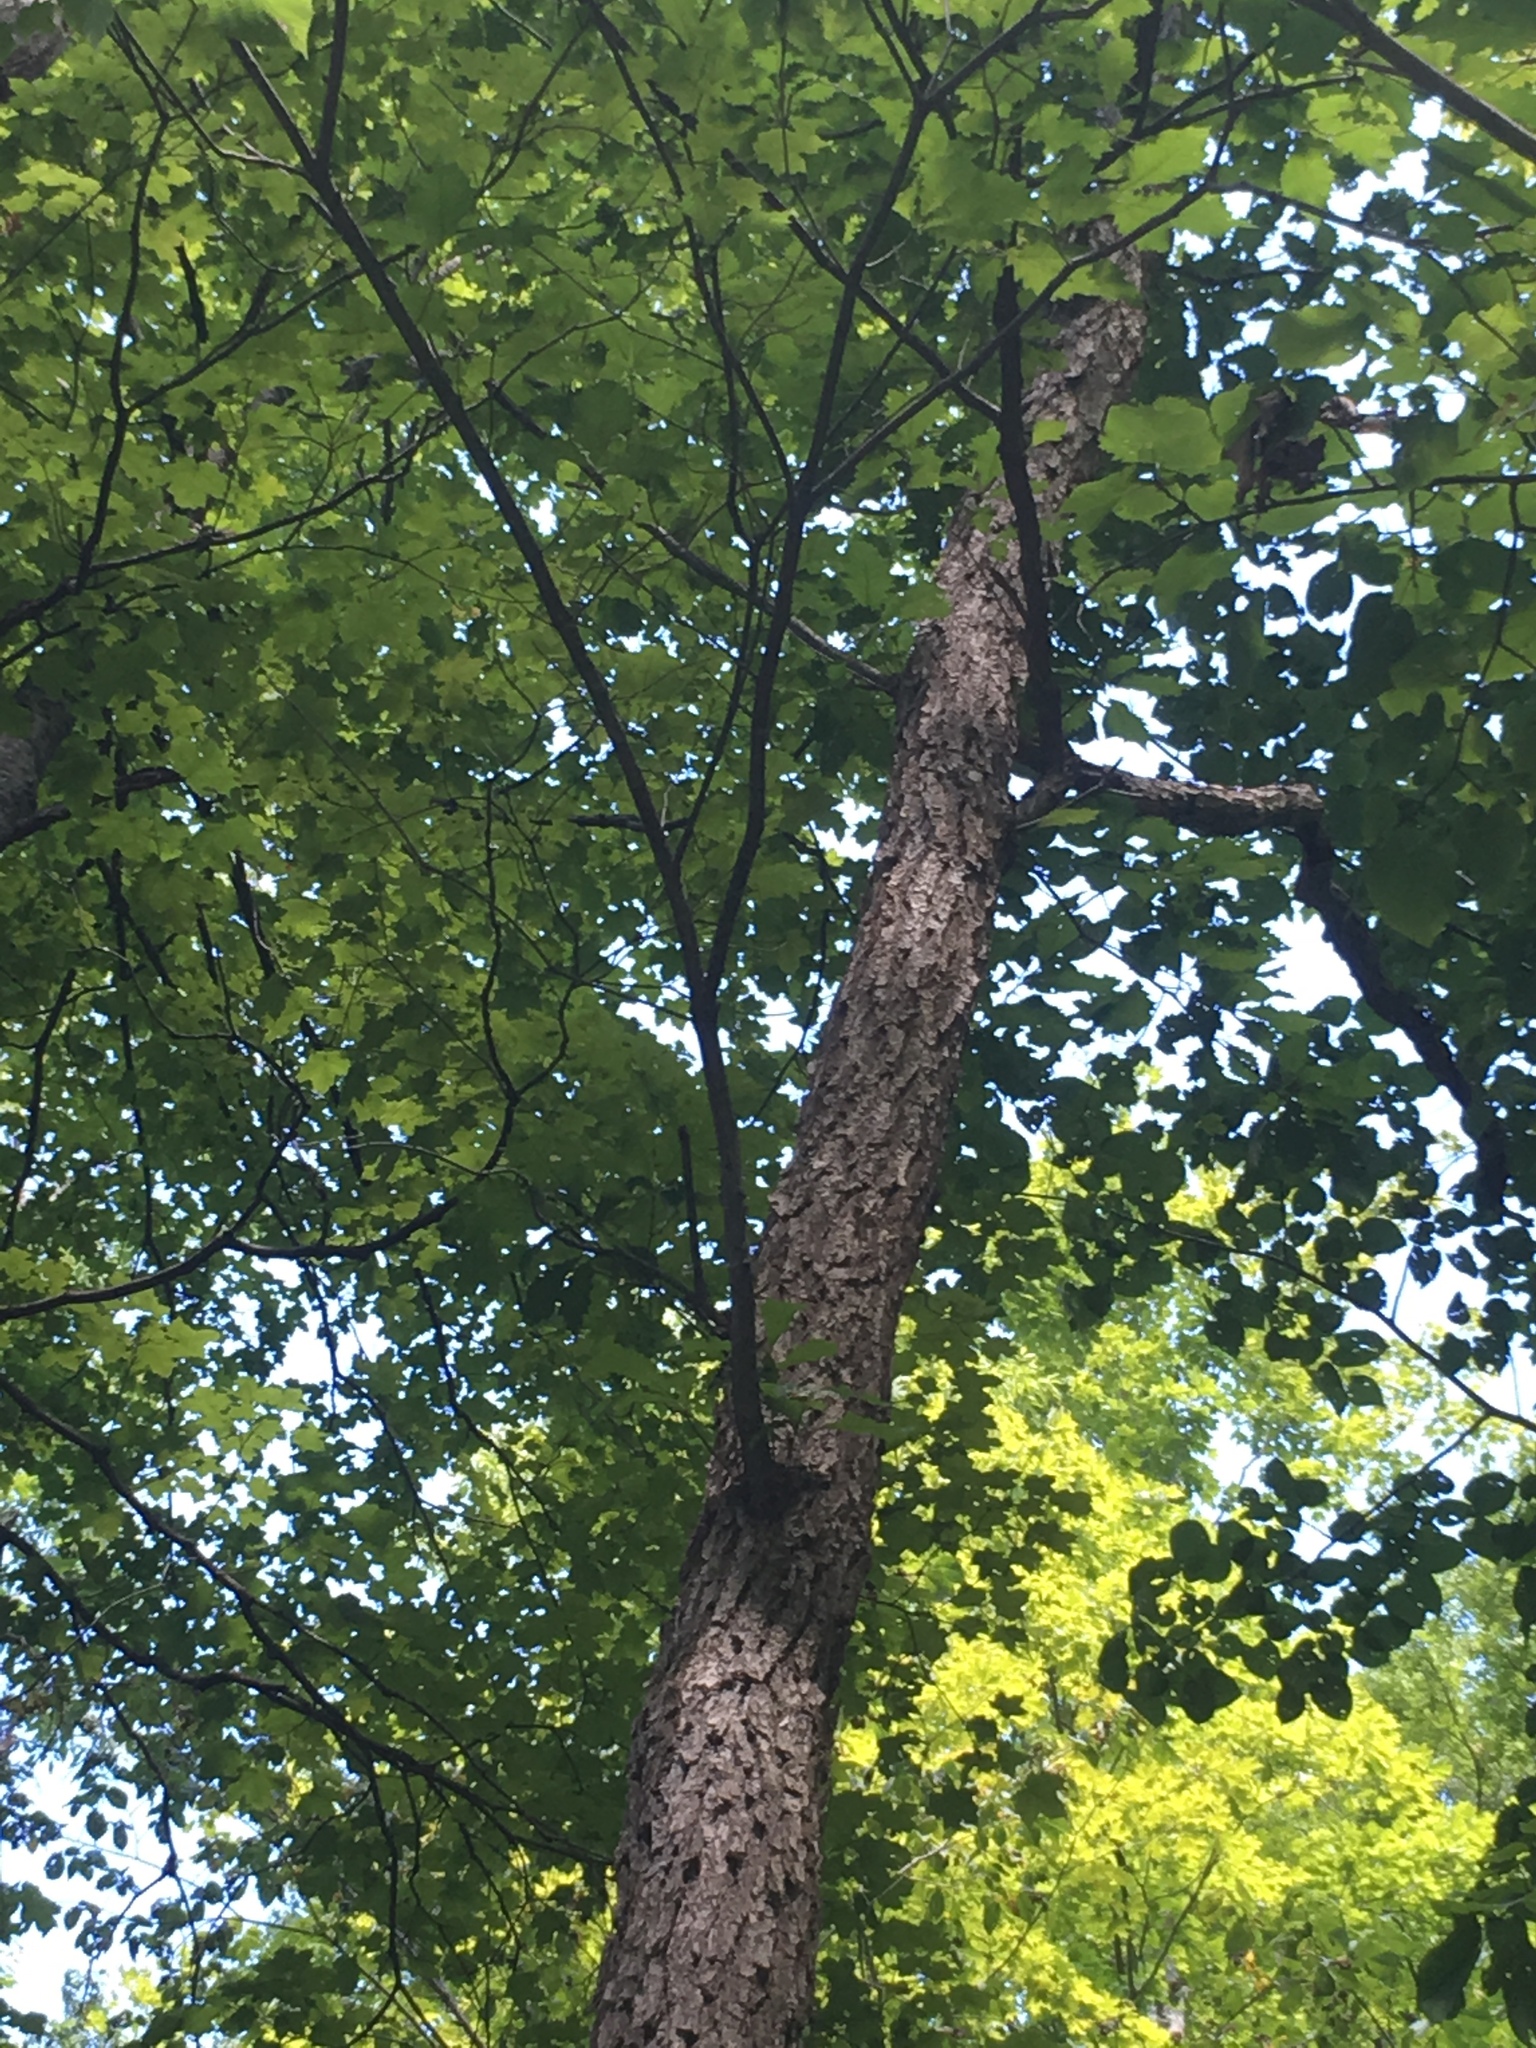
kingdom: Plantae
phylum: Tracheophyta
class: Magnoliopsida
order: Fagales
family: Fagaceae
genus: Quercus
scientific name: Quercus muehlenbergii
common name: Chinkapin oak
